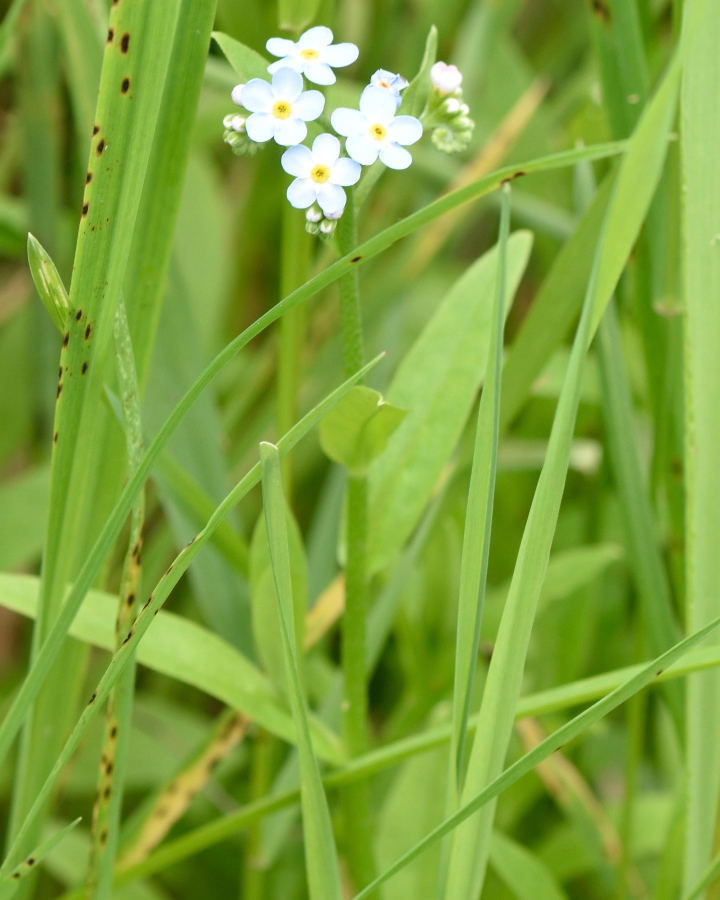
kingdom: Plantae
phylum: Tracheophyta
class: Magnoliopsida
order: Boraginales
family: Boraginaceae
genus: Myosotis
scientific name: Myosotis scorpioides
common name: Water forget-me-not
